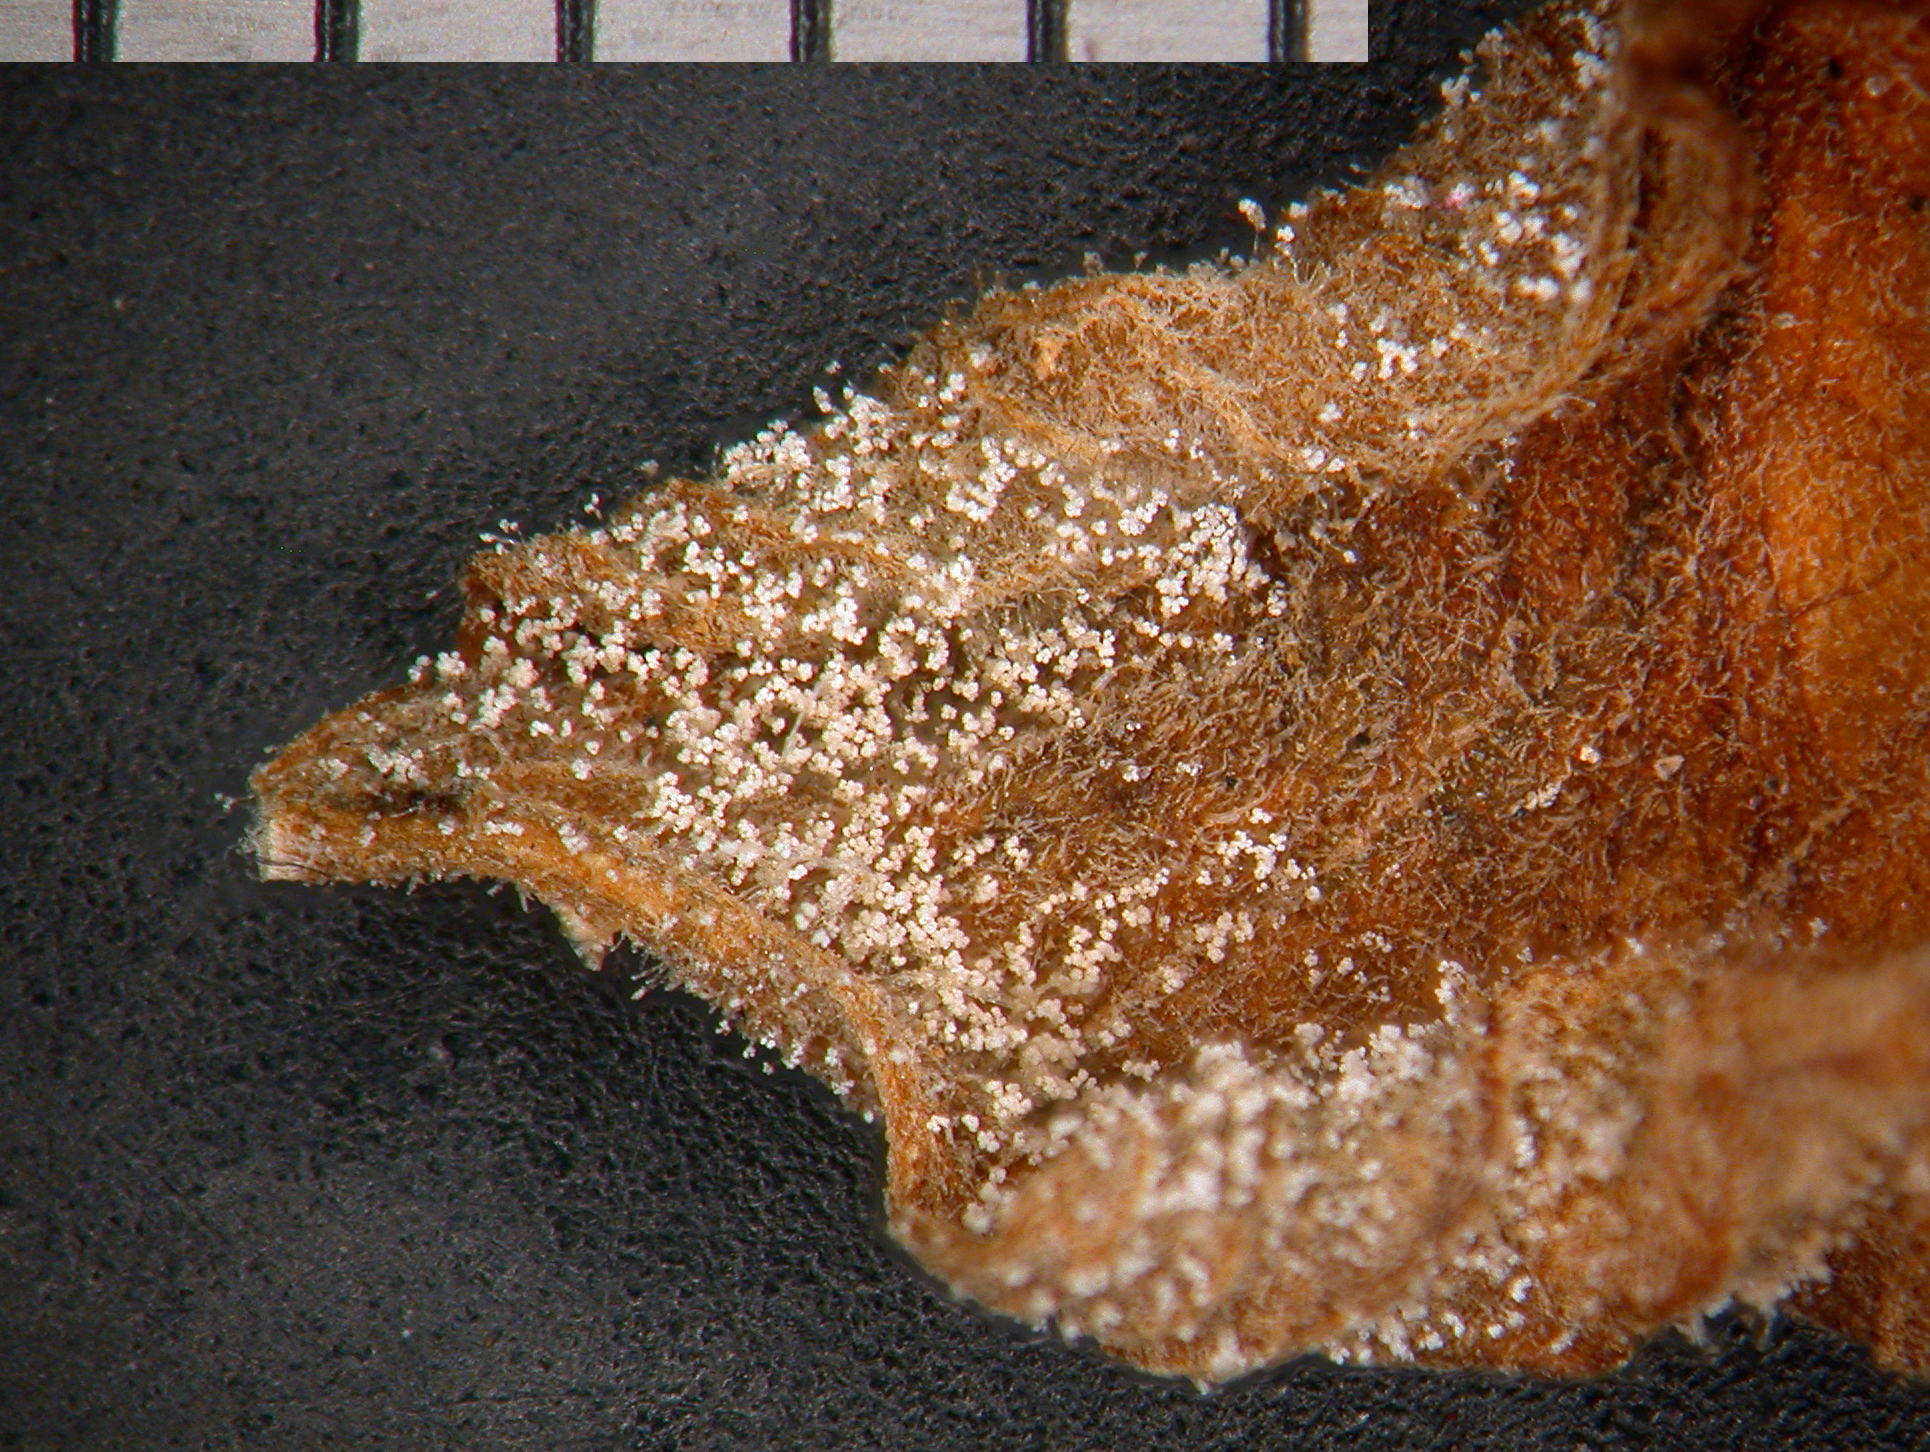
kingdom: Fungi
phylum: Ascomycota
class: Leotiomycetes
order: Helotiales
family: Sclerotiniaceae
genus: Botrytis
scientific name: Botrytis cinerea
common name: Grey mould
